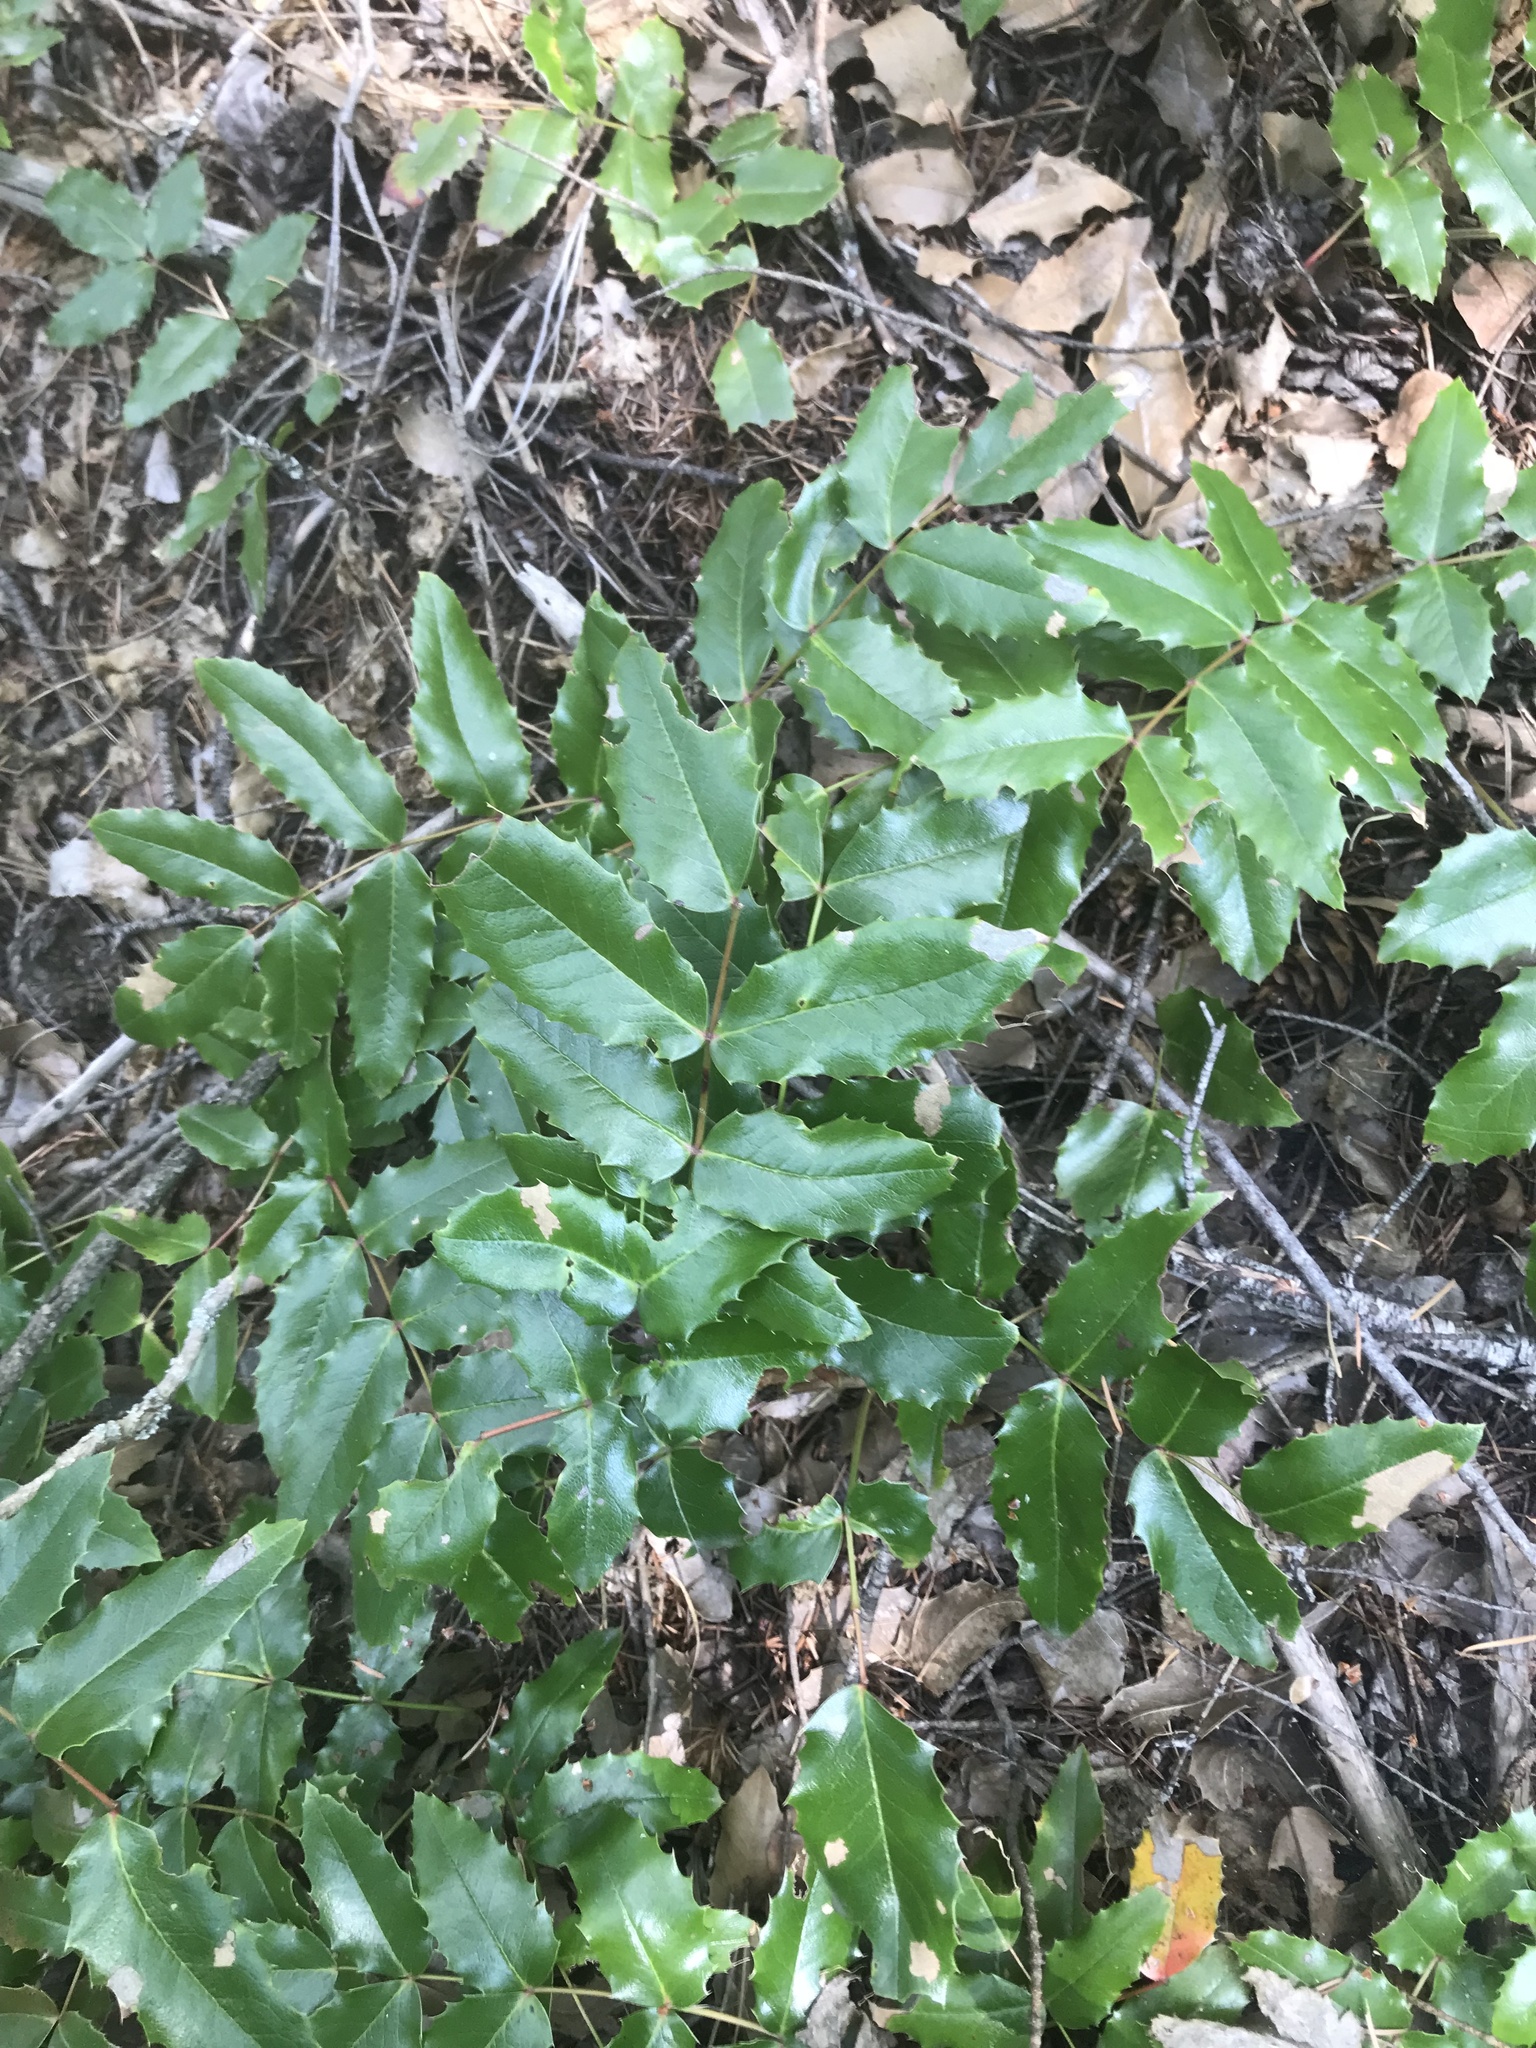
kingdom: Plantae
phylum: Tracheophyta
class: Magnoliopsida
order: Ranunculales
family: Berberidaceae
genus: Mahonia
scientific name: Mahonia aquifolium
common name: Oregon-grape
